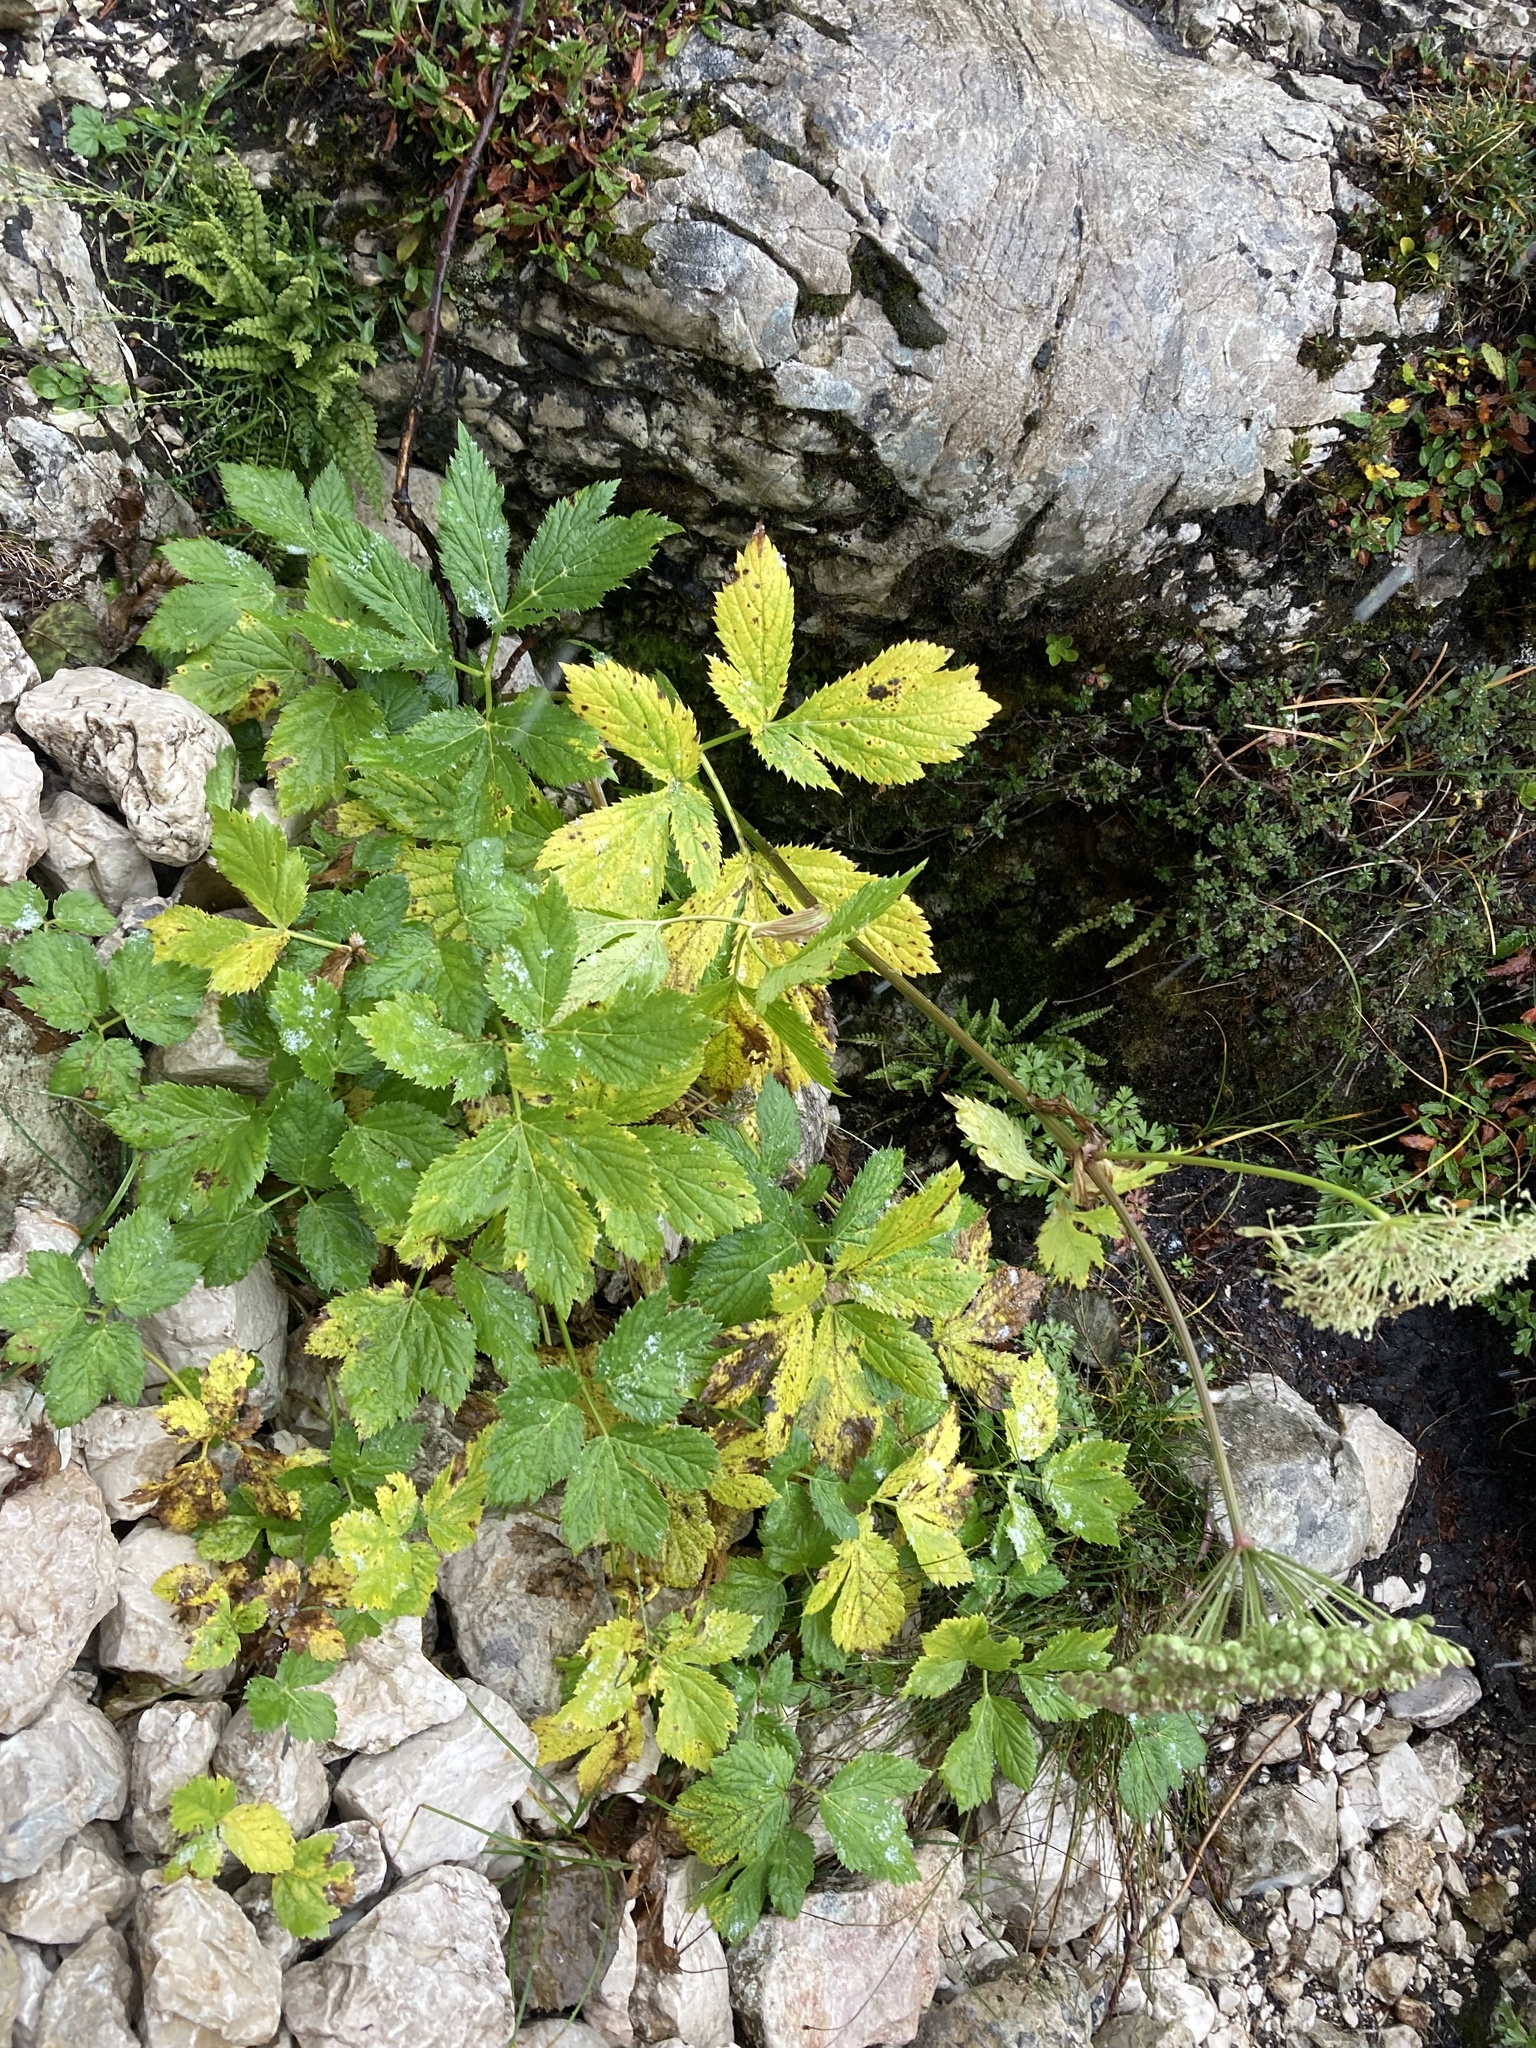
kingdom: Plantae
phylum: Tracheophyta
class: Magnoliopsida
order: Apiales
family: Apiaceae
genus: Imperatoria
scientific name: Imperatoria ostruthium
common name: Masterwort
